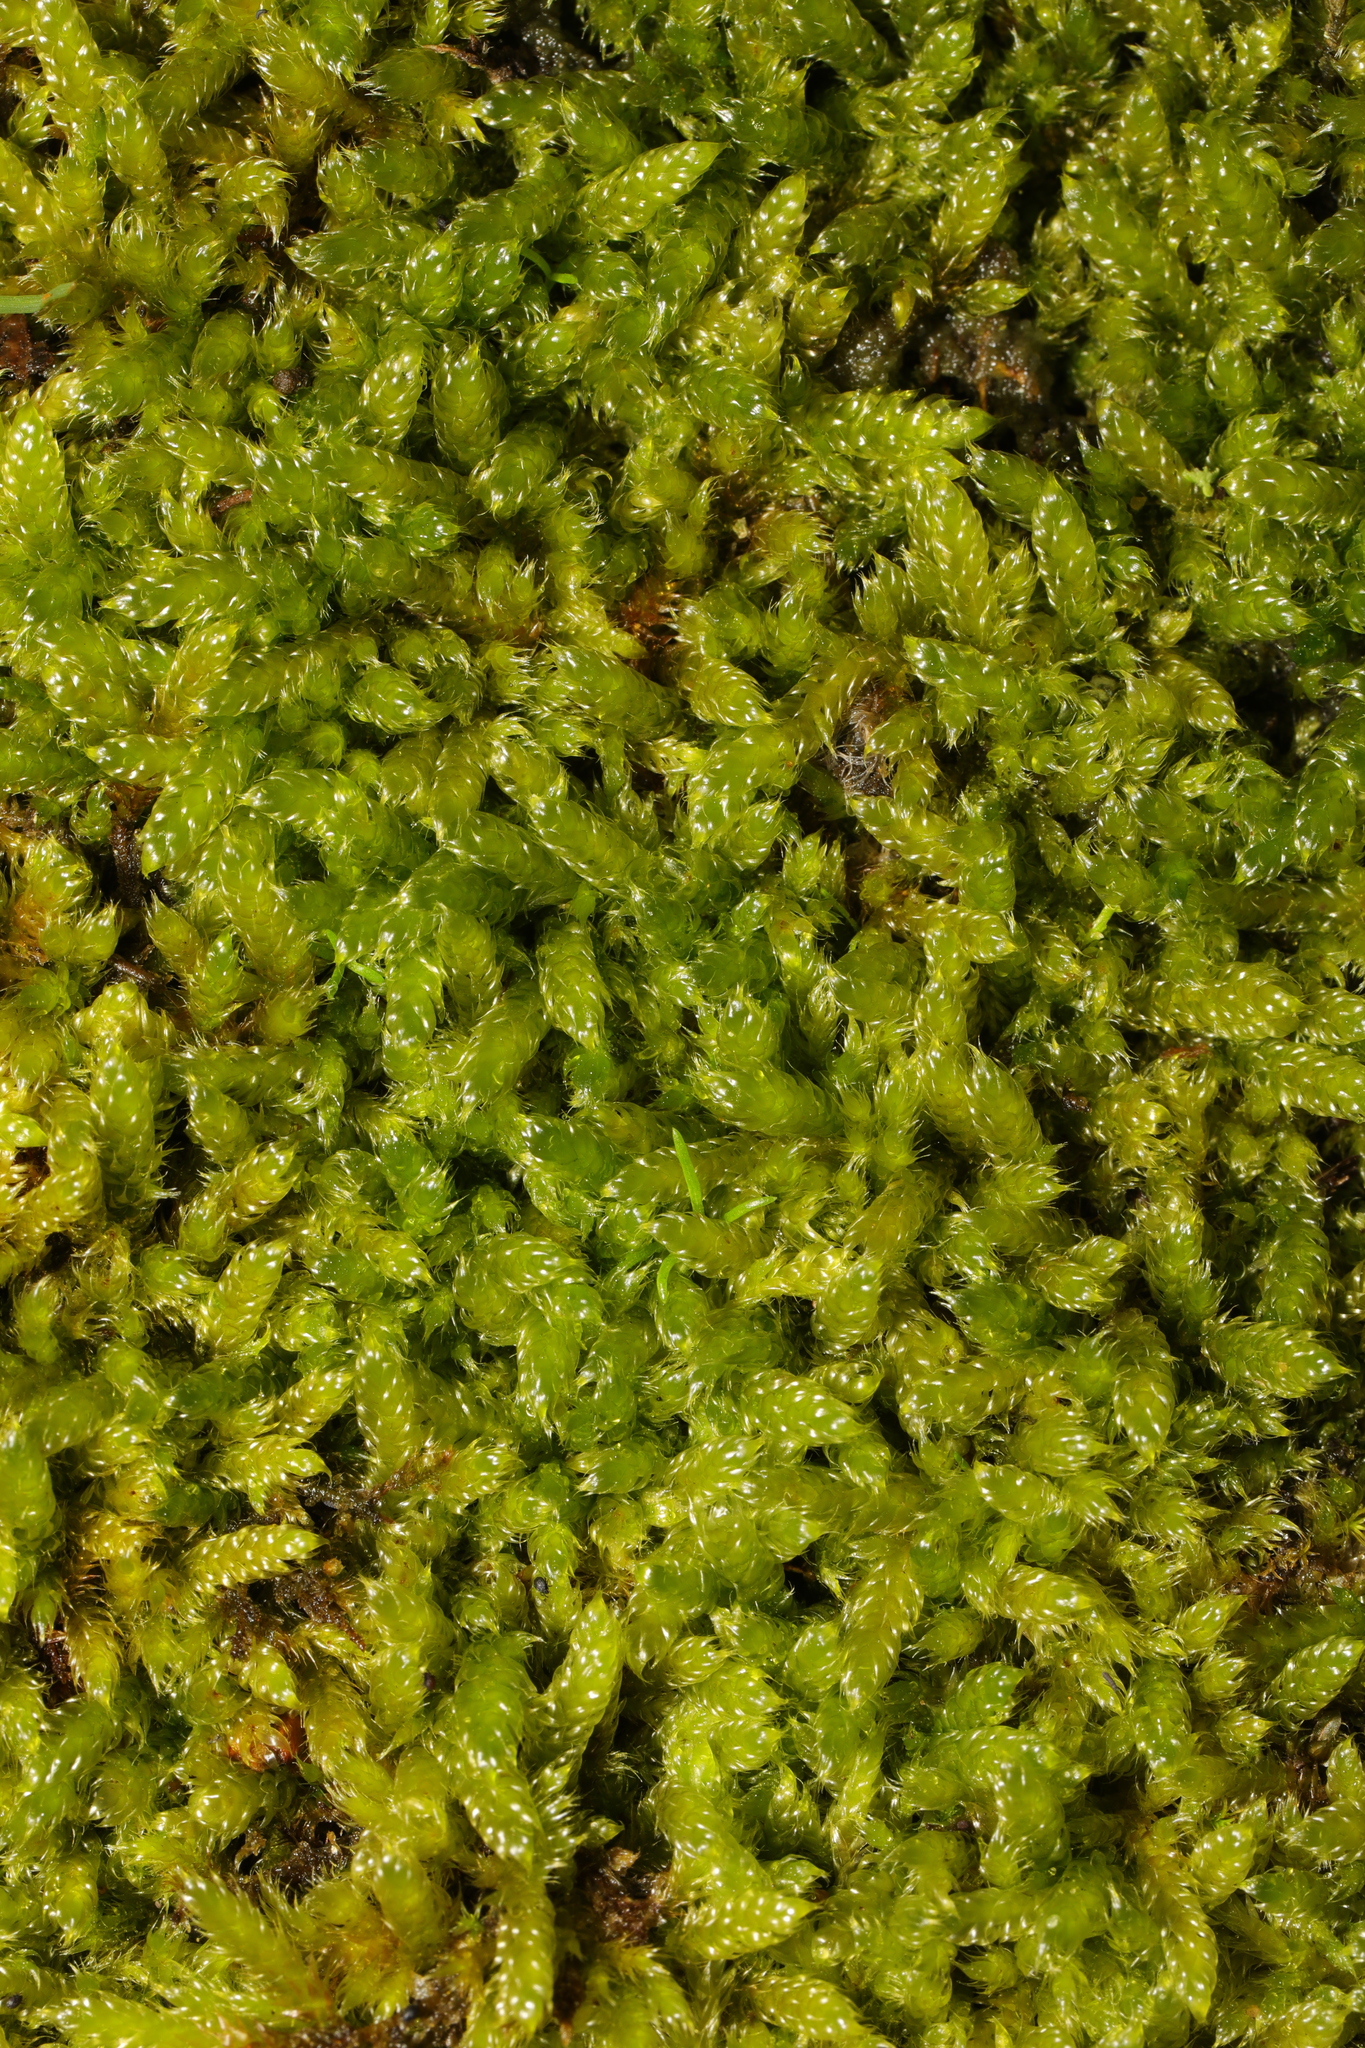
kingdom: Plantae
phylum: Bryophyta
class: Bryopsida
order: Hypnales
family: Hypnaceae
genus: Hypnum
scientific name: Hypnum cupressiforme
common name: Cypress-leaved plait-moss
